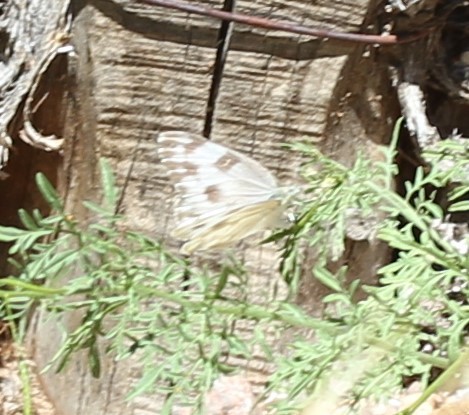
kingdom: Animalia
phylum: Arthropoda
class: Insecta
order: Lepidoptera
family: Pieridae
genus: Pontia
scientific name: Pontia protodice
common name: Checkered white
